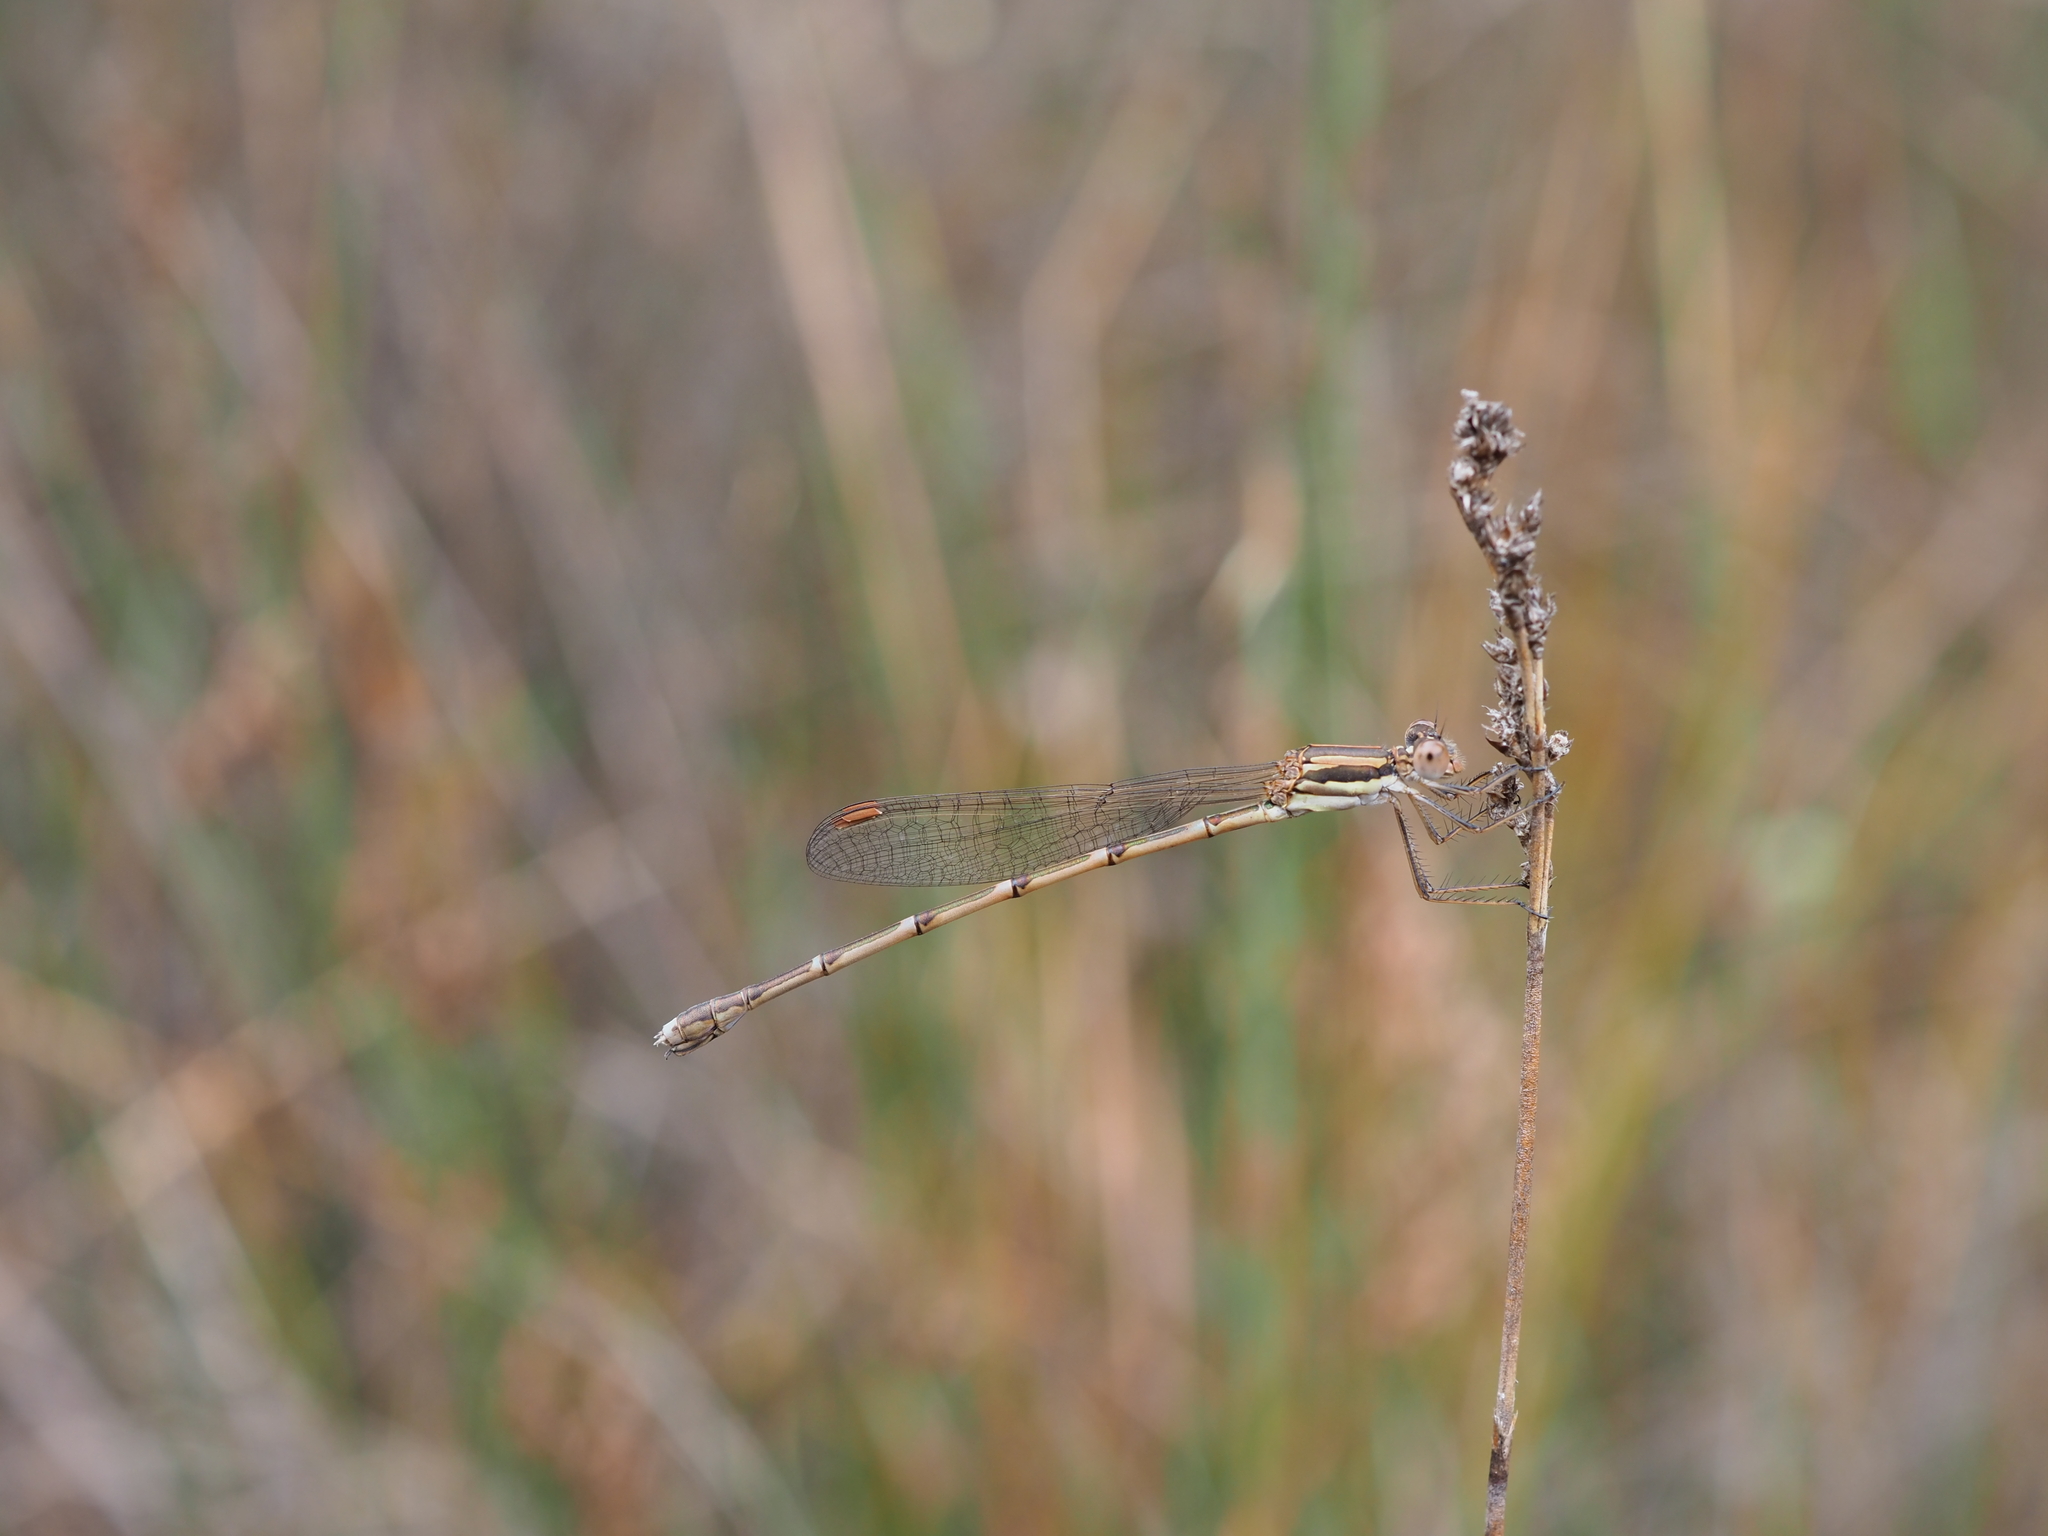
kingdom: Animalia
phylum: Arthropoda
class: Insecta
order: Odonata
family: Lestidae
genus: Austrolestes
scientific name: Austrolestes analis
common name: Slender ringtail
